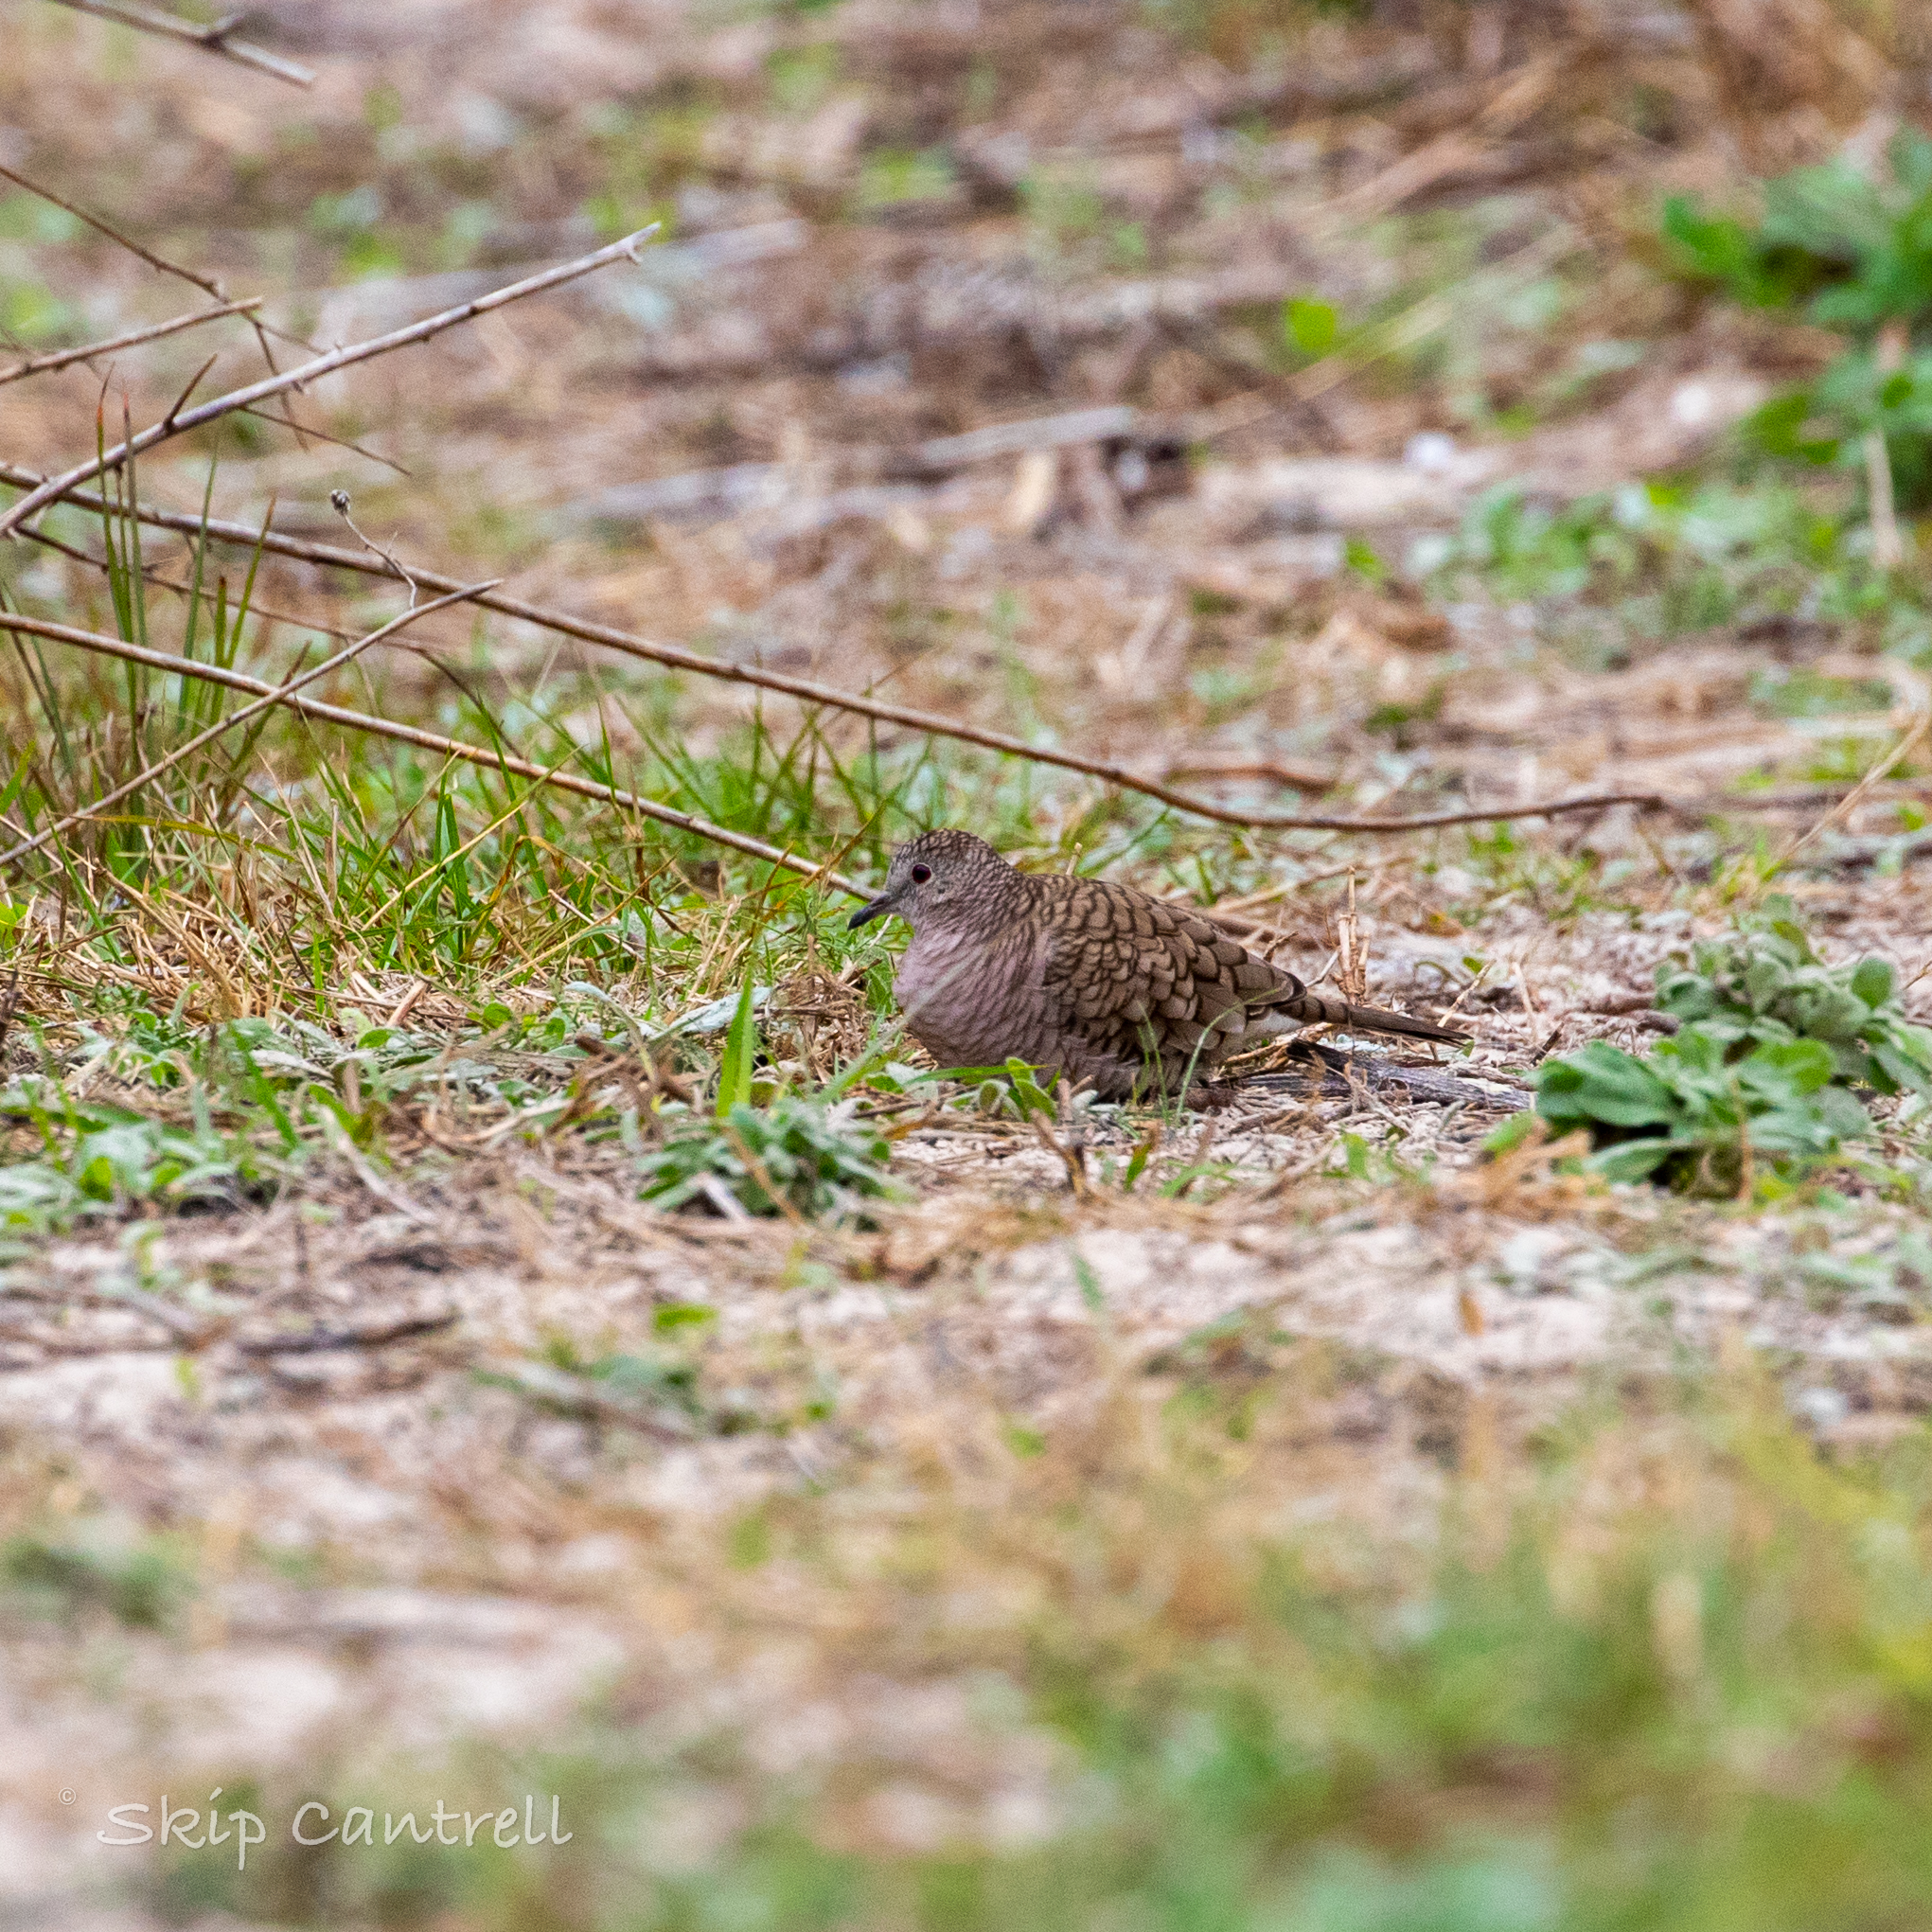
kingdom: Animalia
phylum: Chordata
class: Aves
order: Columbiformes
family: Columbidae
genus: Columbina
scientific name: Columbina inca
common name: Inca dove
